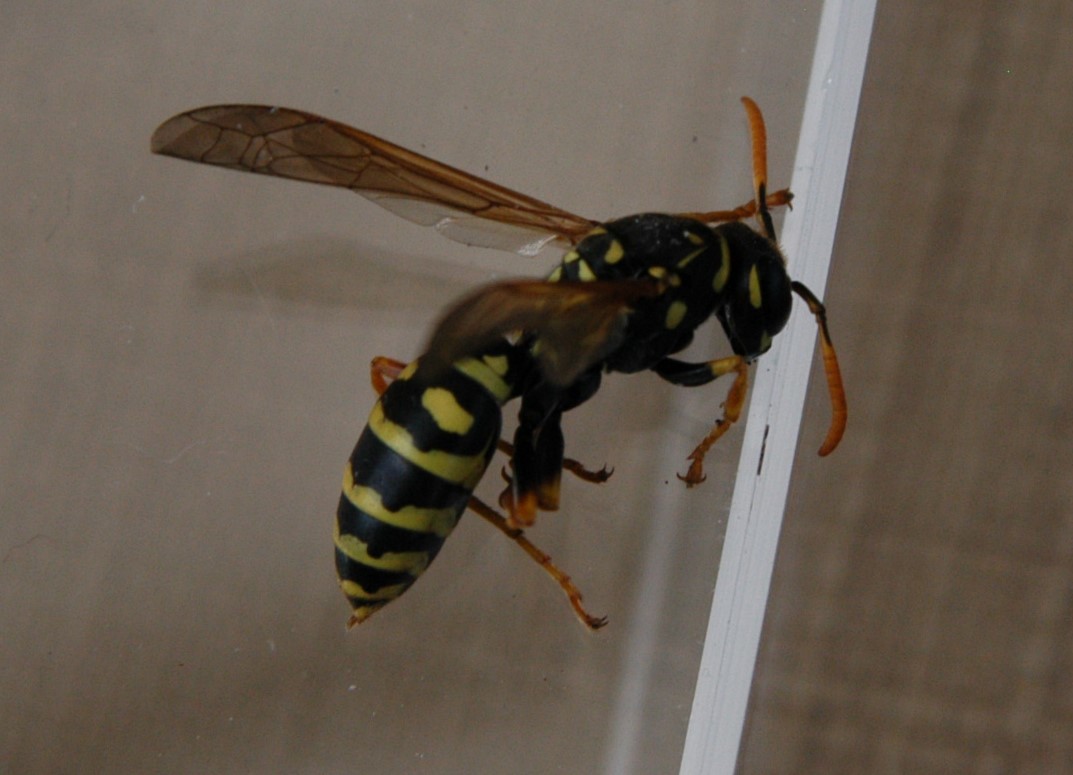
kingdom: Animalia
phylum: Arthropoda
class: Insecta
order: Hymenoptera
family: Eumenidae
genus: Polistes
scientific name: Polistes dominula
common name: Paper wasp
